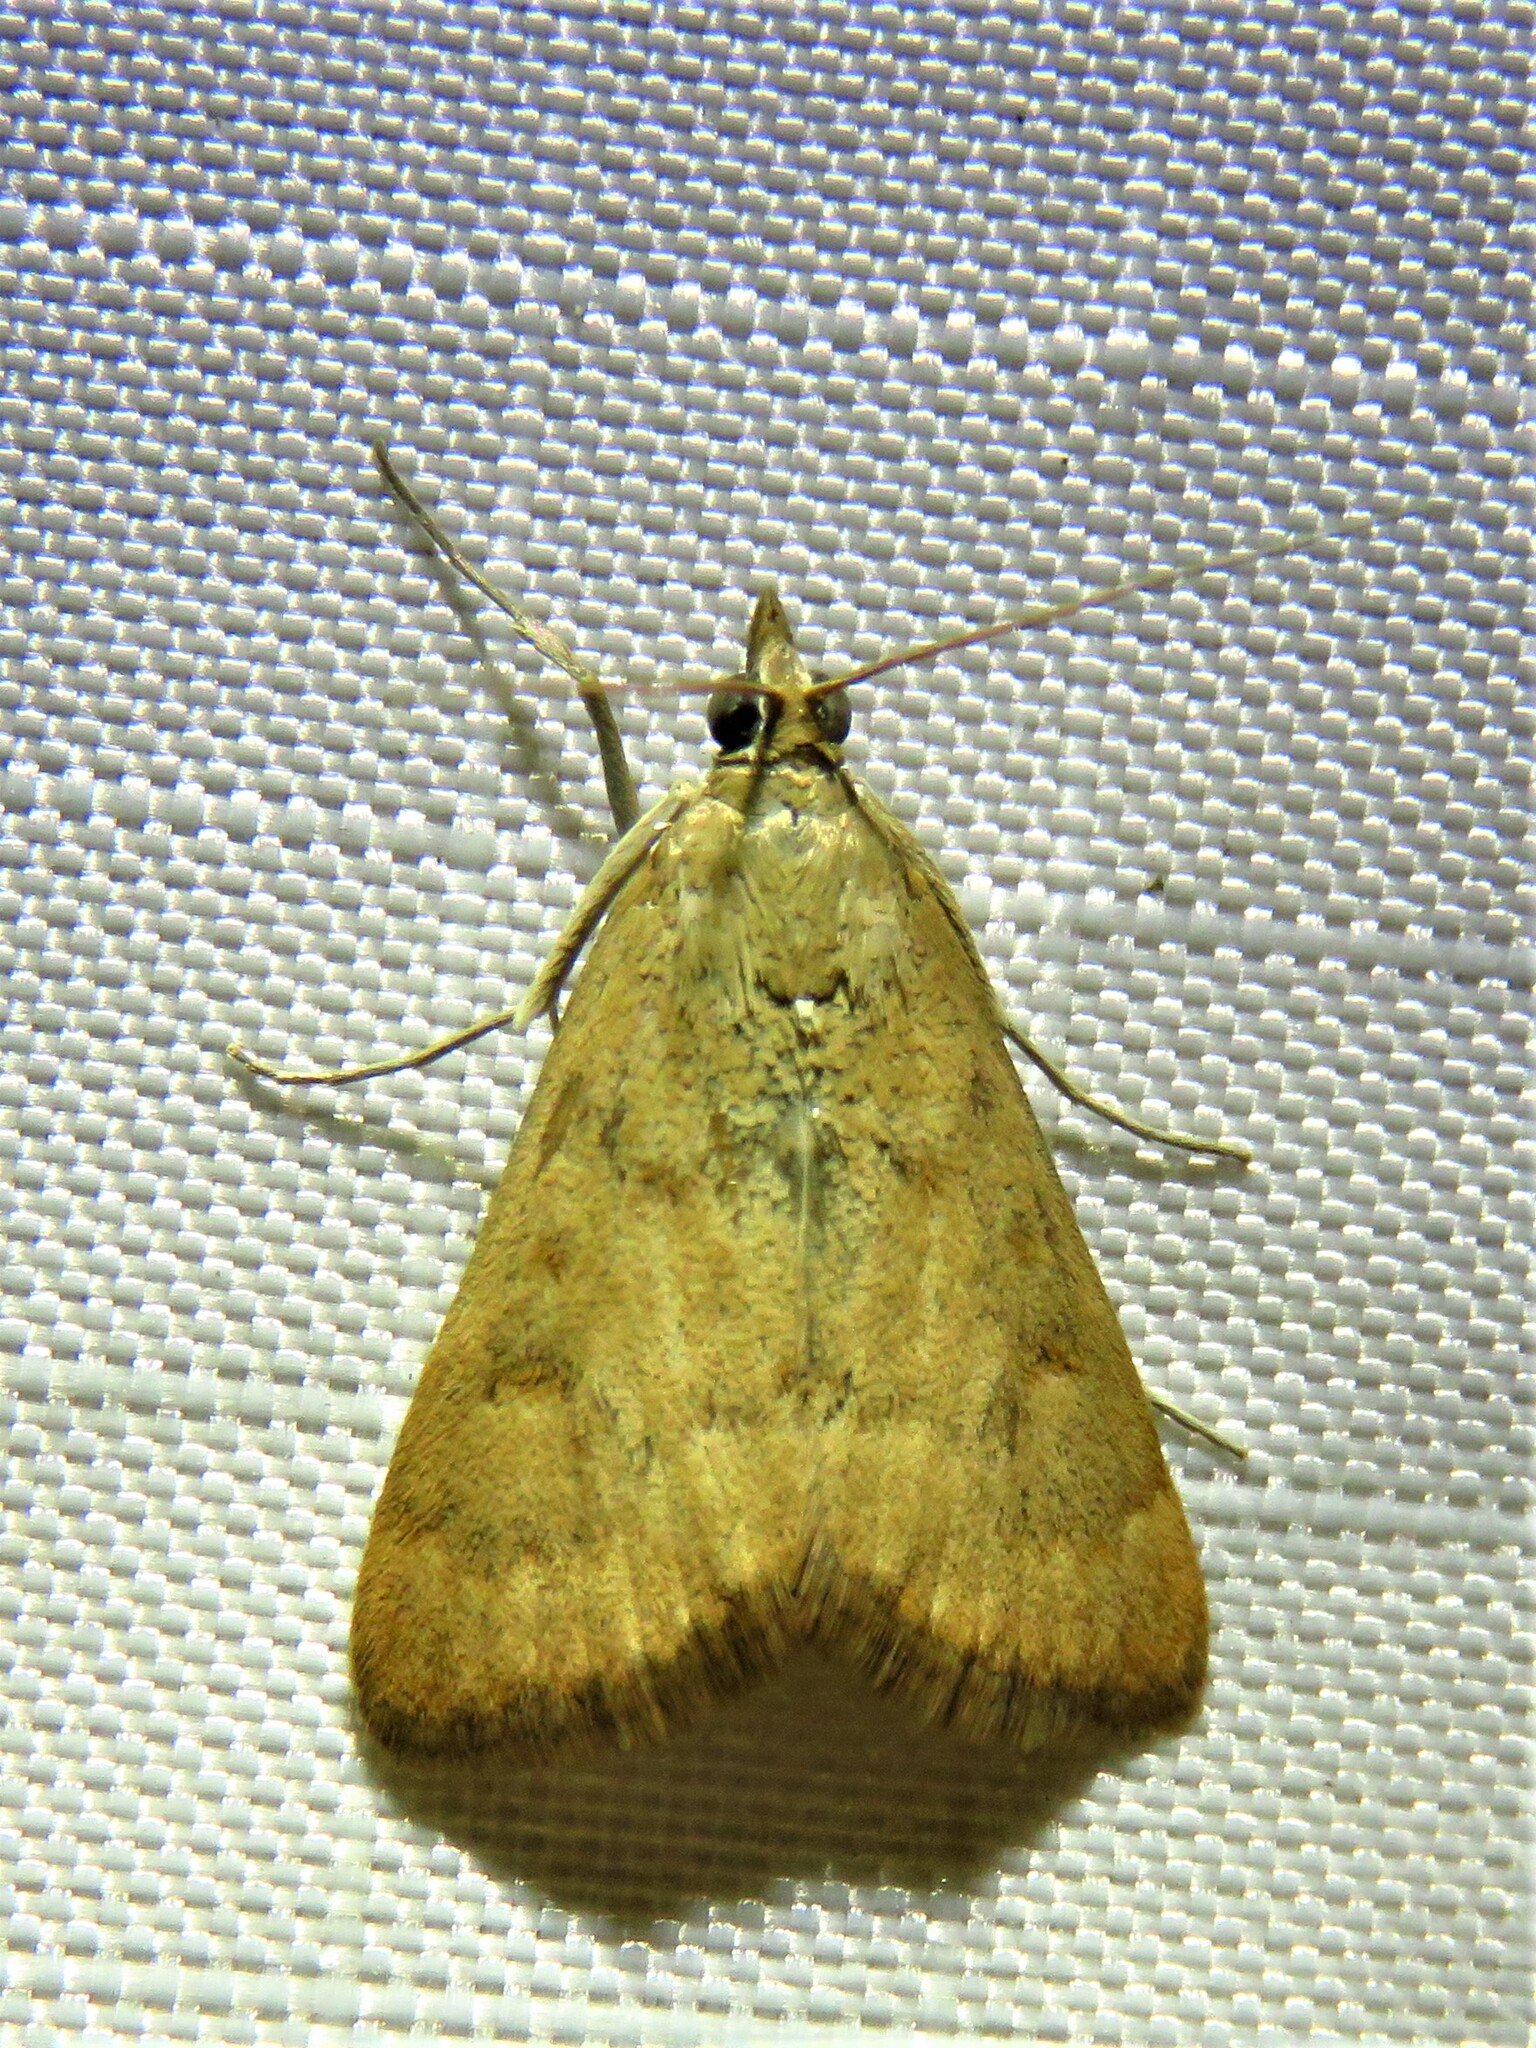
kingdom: Animalia
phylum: Arthropoda
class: Insecta
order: Lepidoptera
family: Crambidae
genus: Achyra
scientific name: Achyra rantalis
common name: Garden webworm
